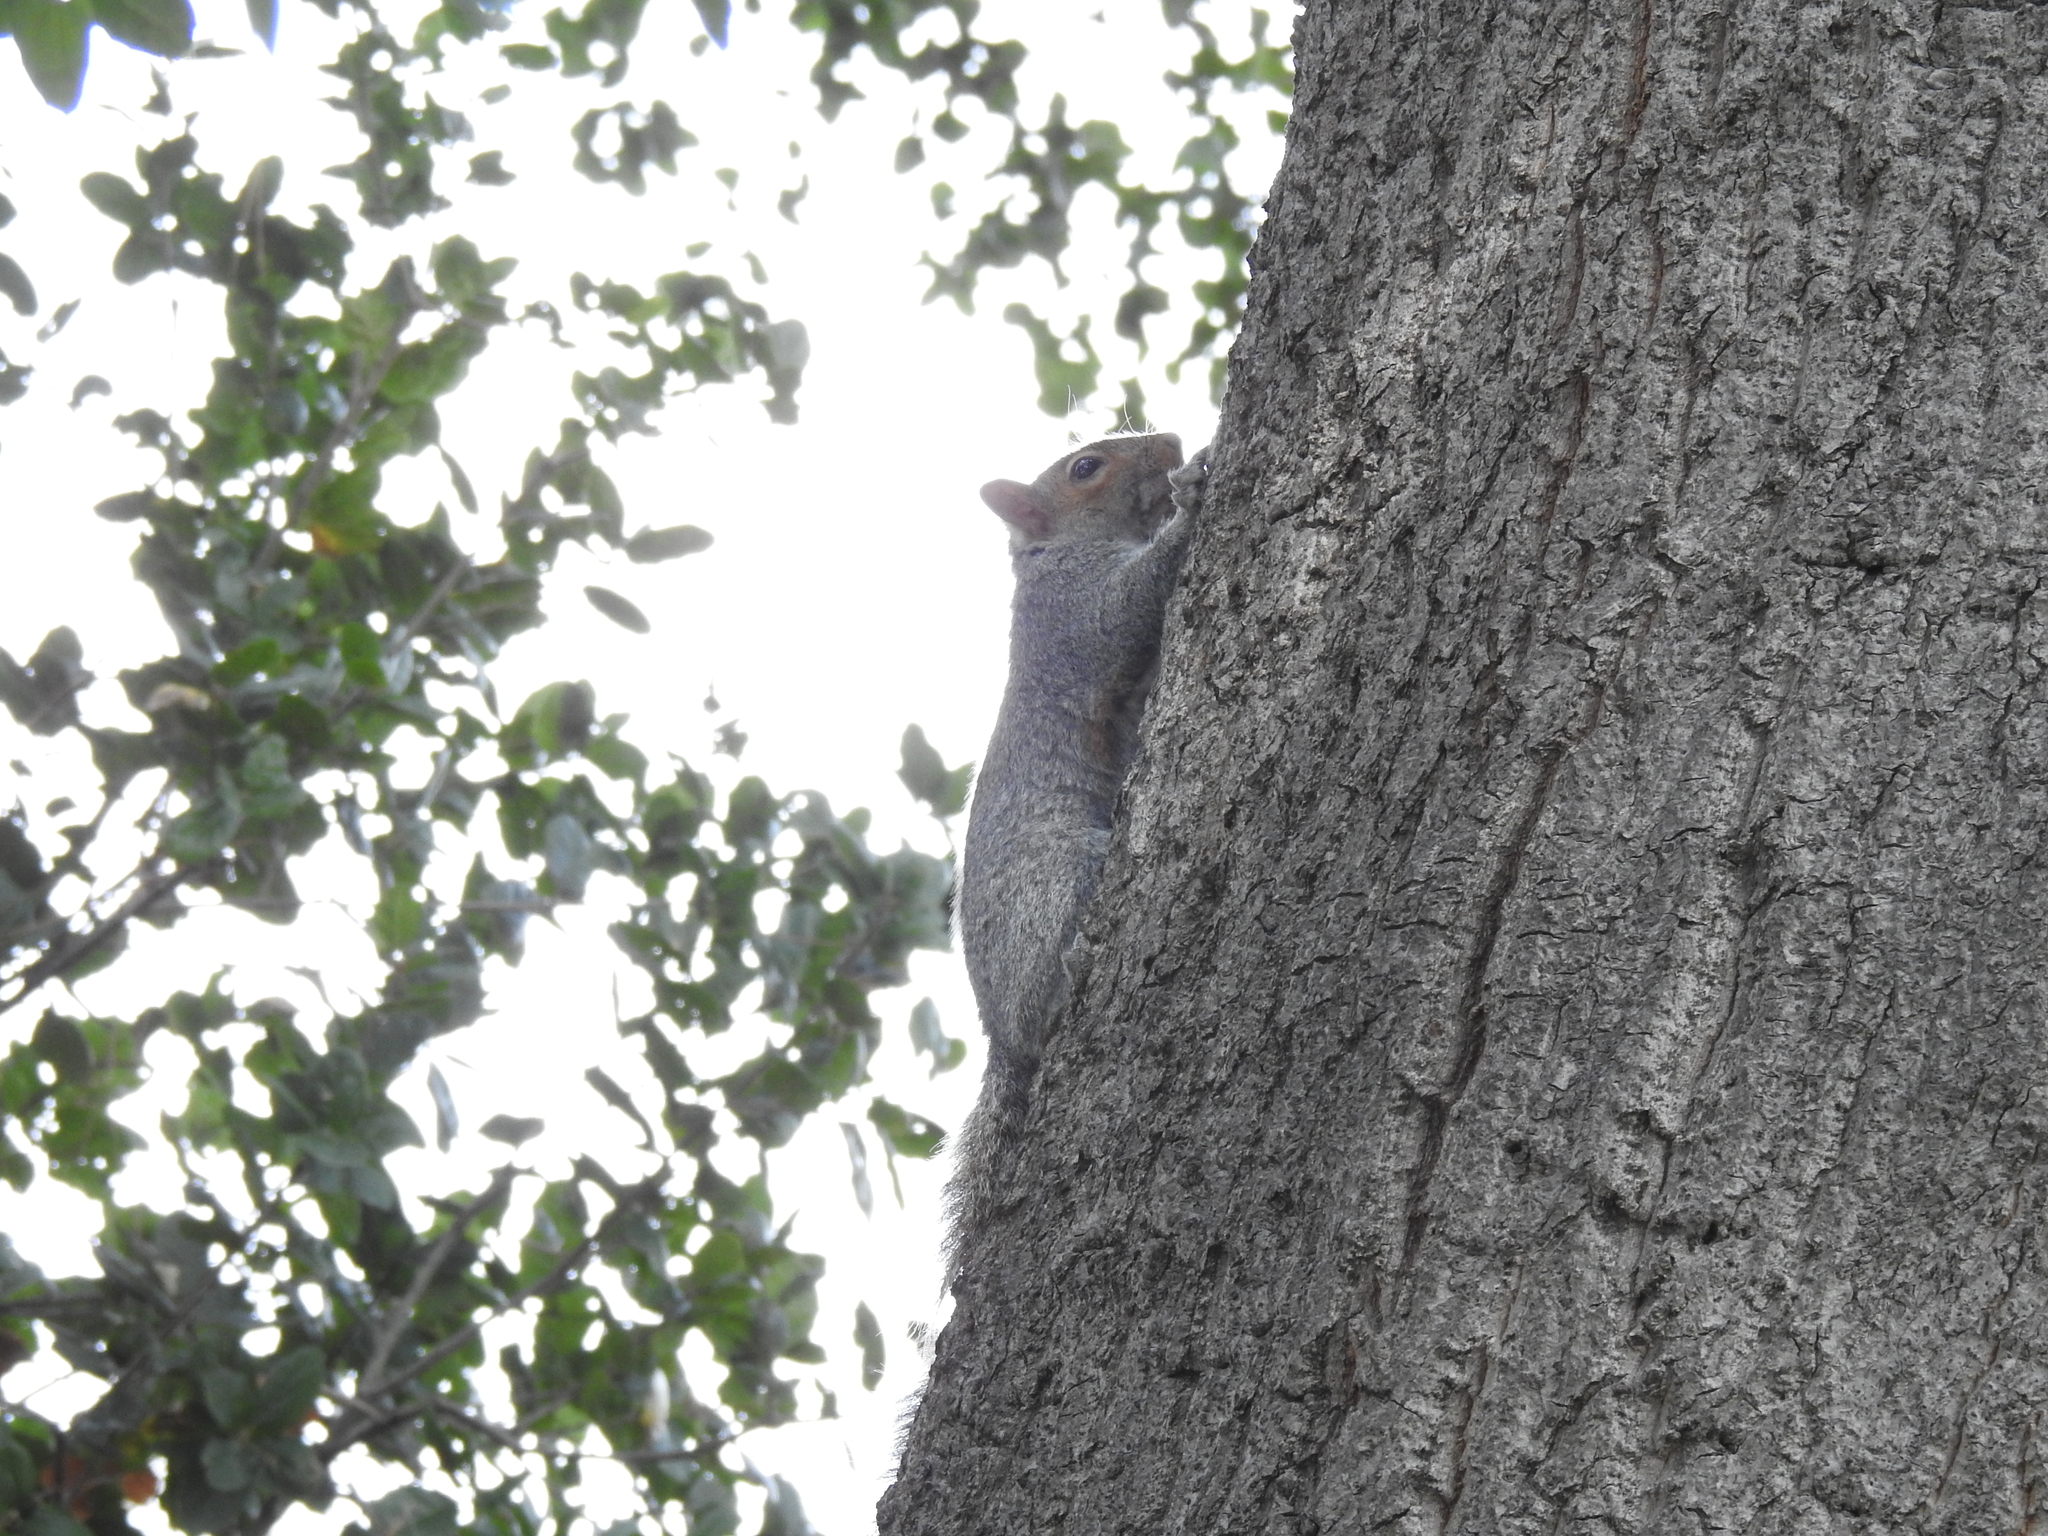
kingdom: Animalia
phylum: Chordata
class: Mammalia
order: Rodentia
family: Sciuridae
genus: Sciurus
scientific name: Sciurus carolinensis
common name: Eastern gray squirrel
